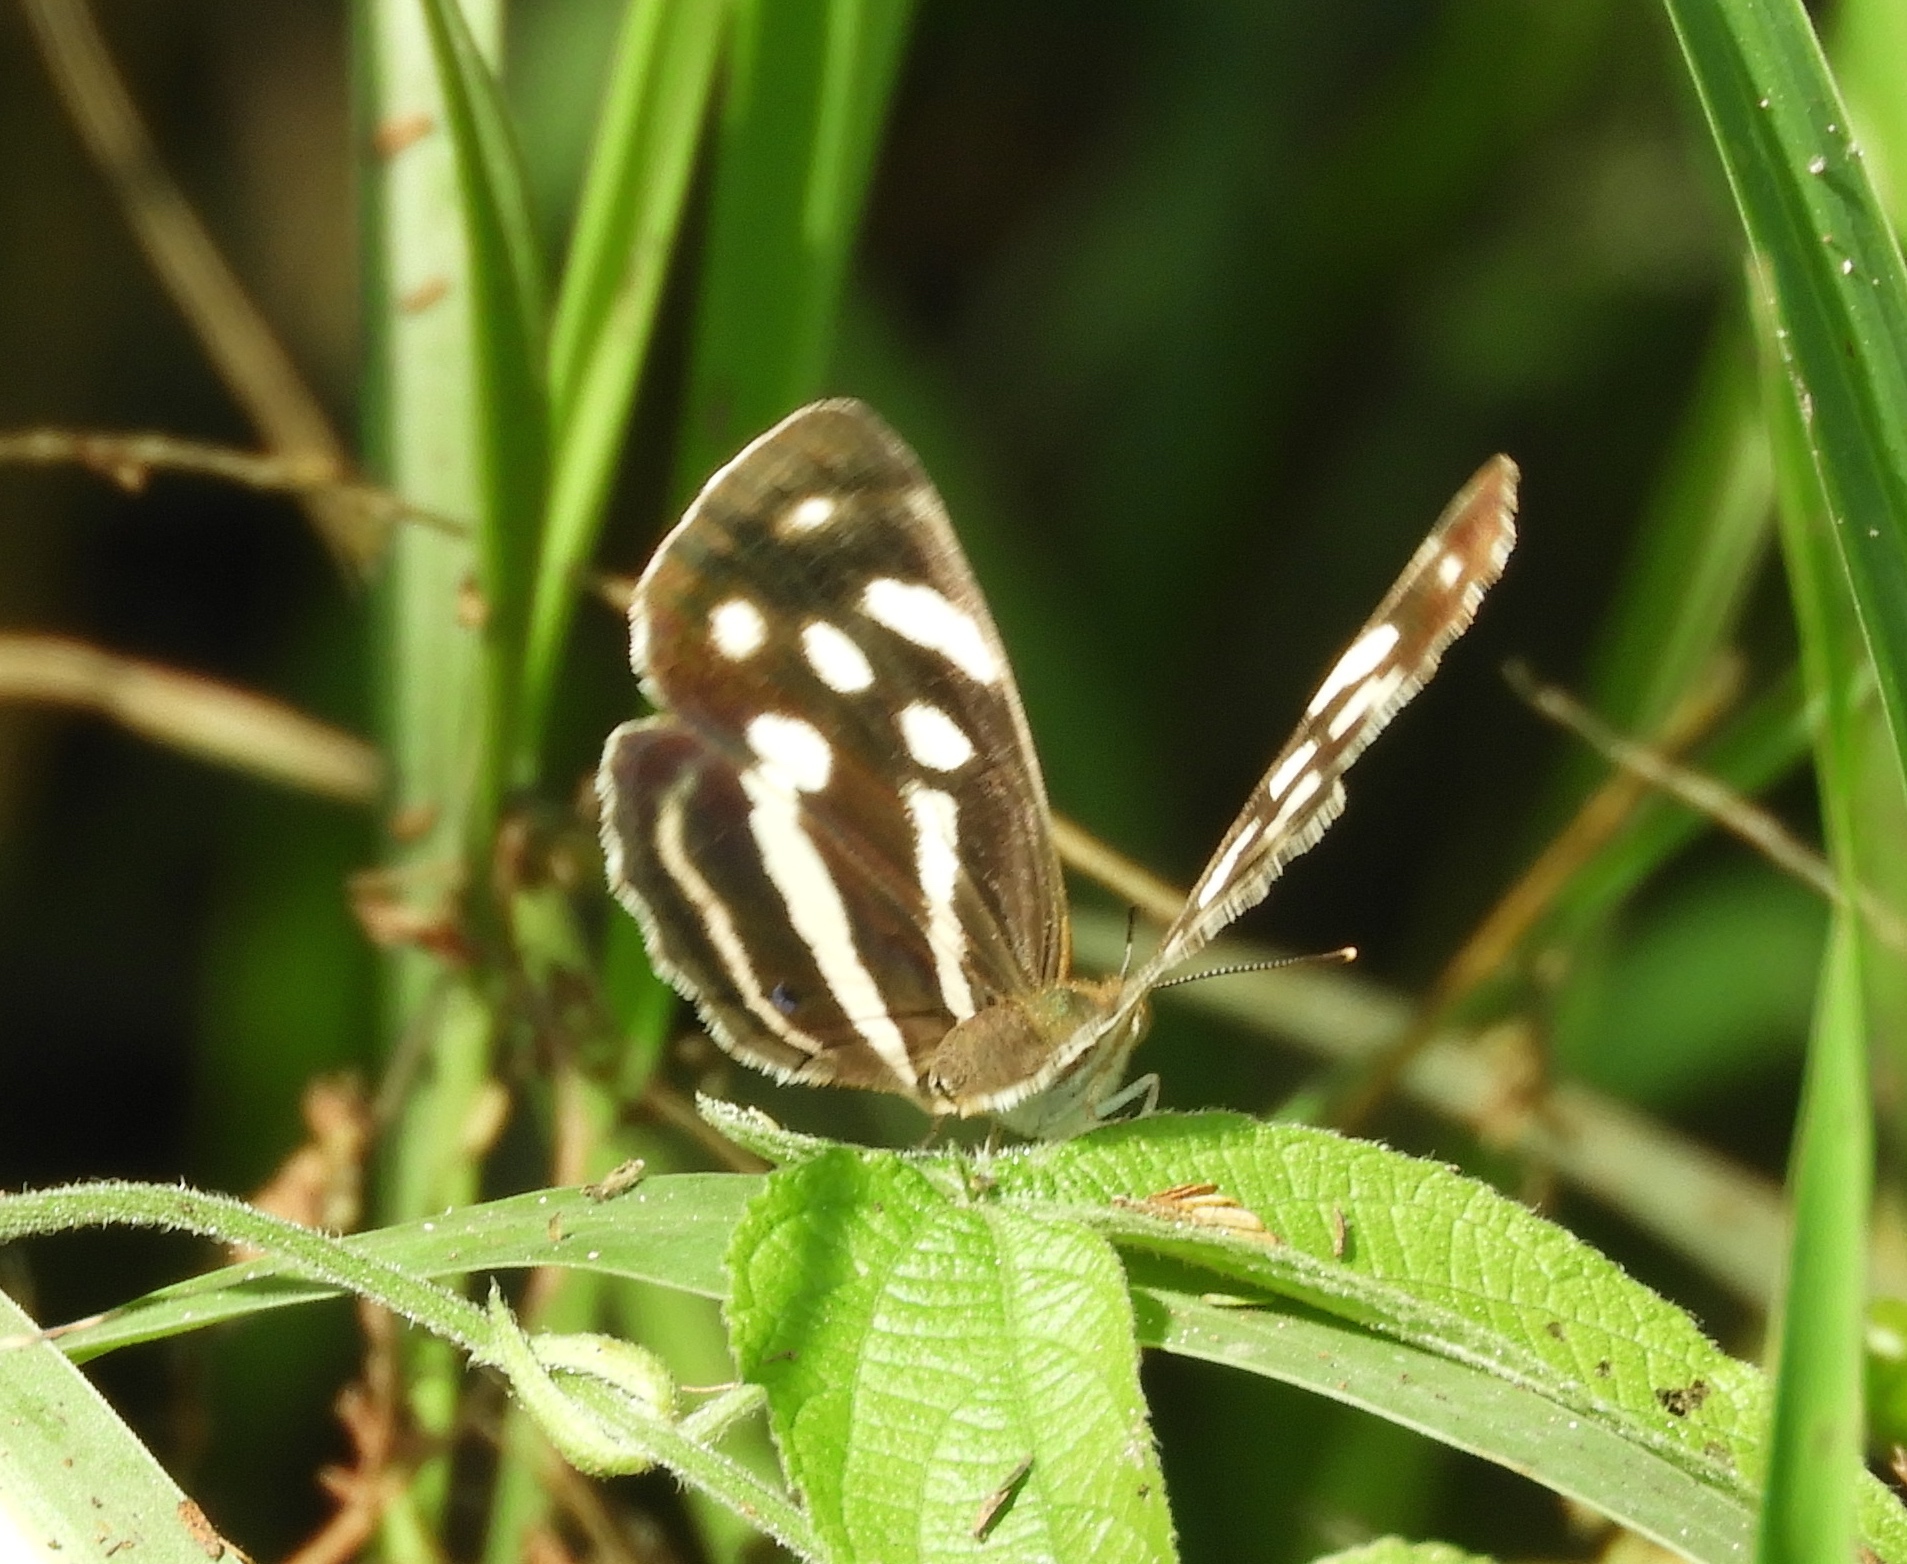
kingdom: Animalia
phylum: Arthropoda
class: Insecta
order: Lepidoptera
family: Nymphalidae
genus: Dynamine
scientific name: Dynamine mylitta
